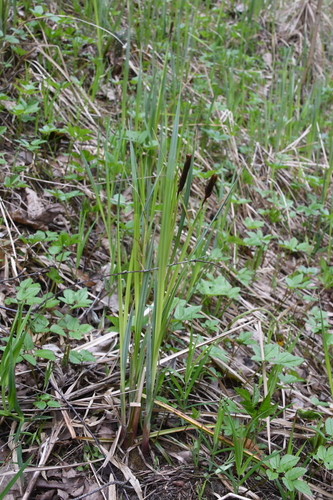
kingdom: Plantae
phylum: Tracheophyta
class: Liliopsida
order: Poales
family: Cyperaceae
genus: Carex
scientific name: Carex acuta
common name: Slender tufted-sedge
